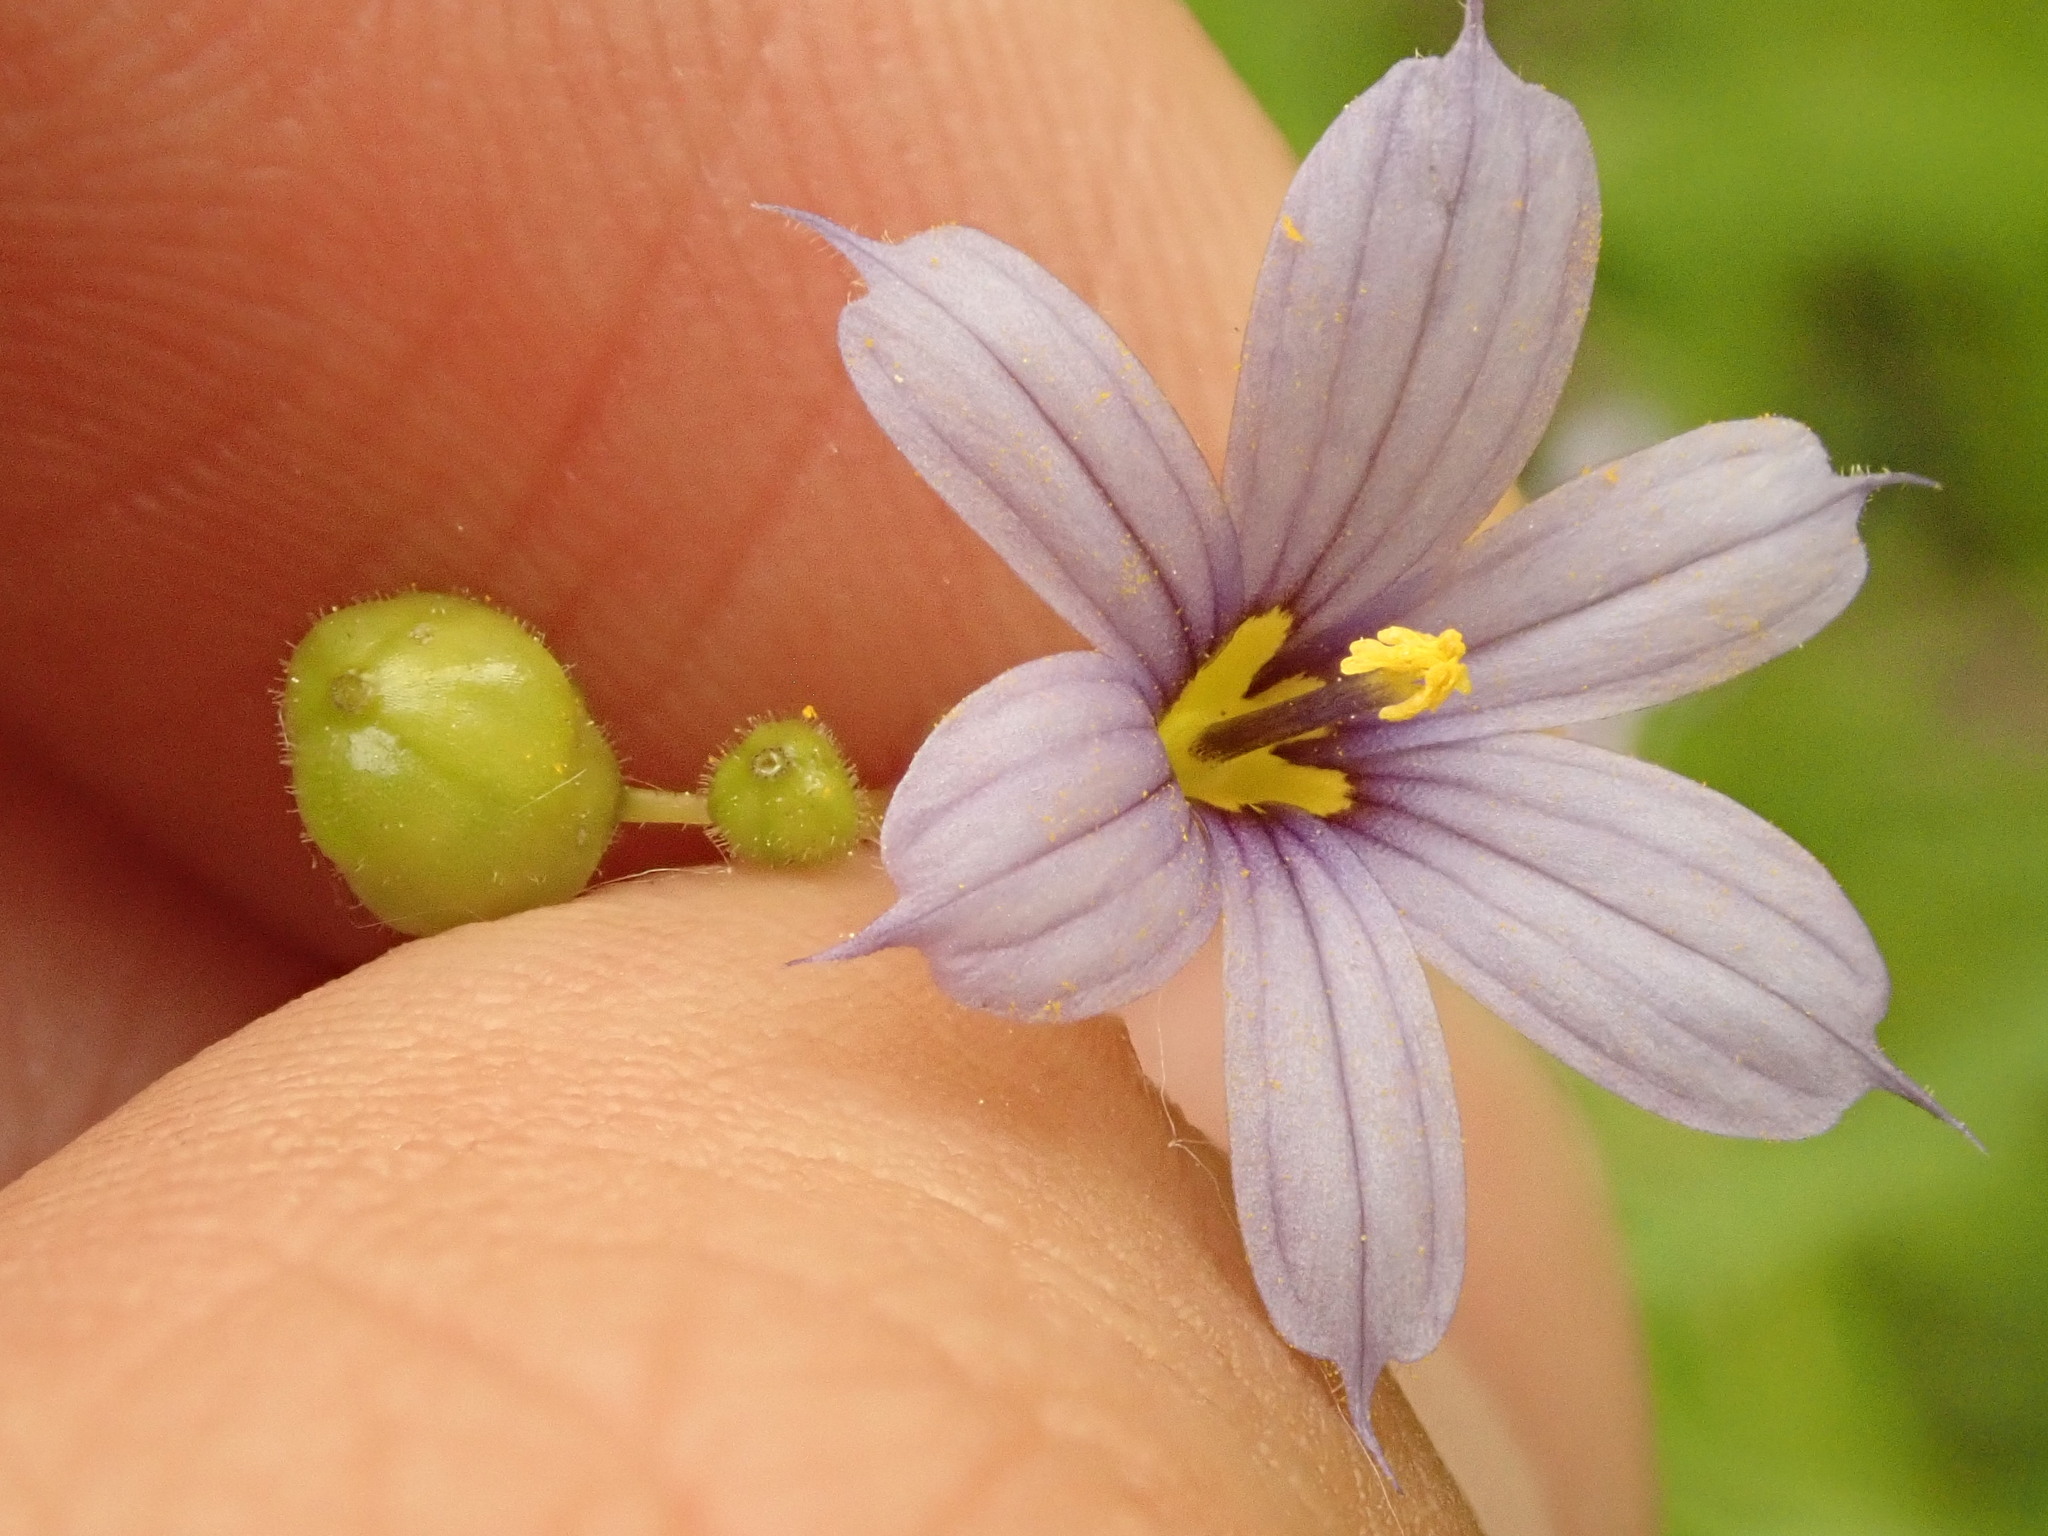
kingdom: Plantae
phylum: Tracheophyta
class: Liliopsida
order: Asparagales
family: Iridaceae
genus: Sisyrinchium
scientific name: Sisyrinchium angustifolium
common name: Narrow-leaf blue-eyed-grass
